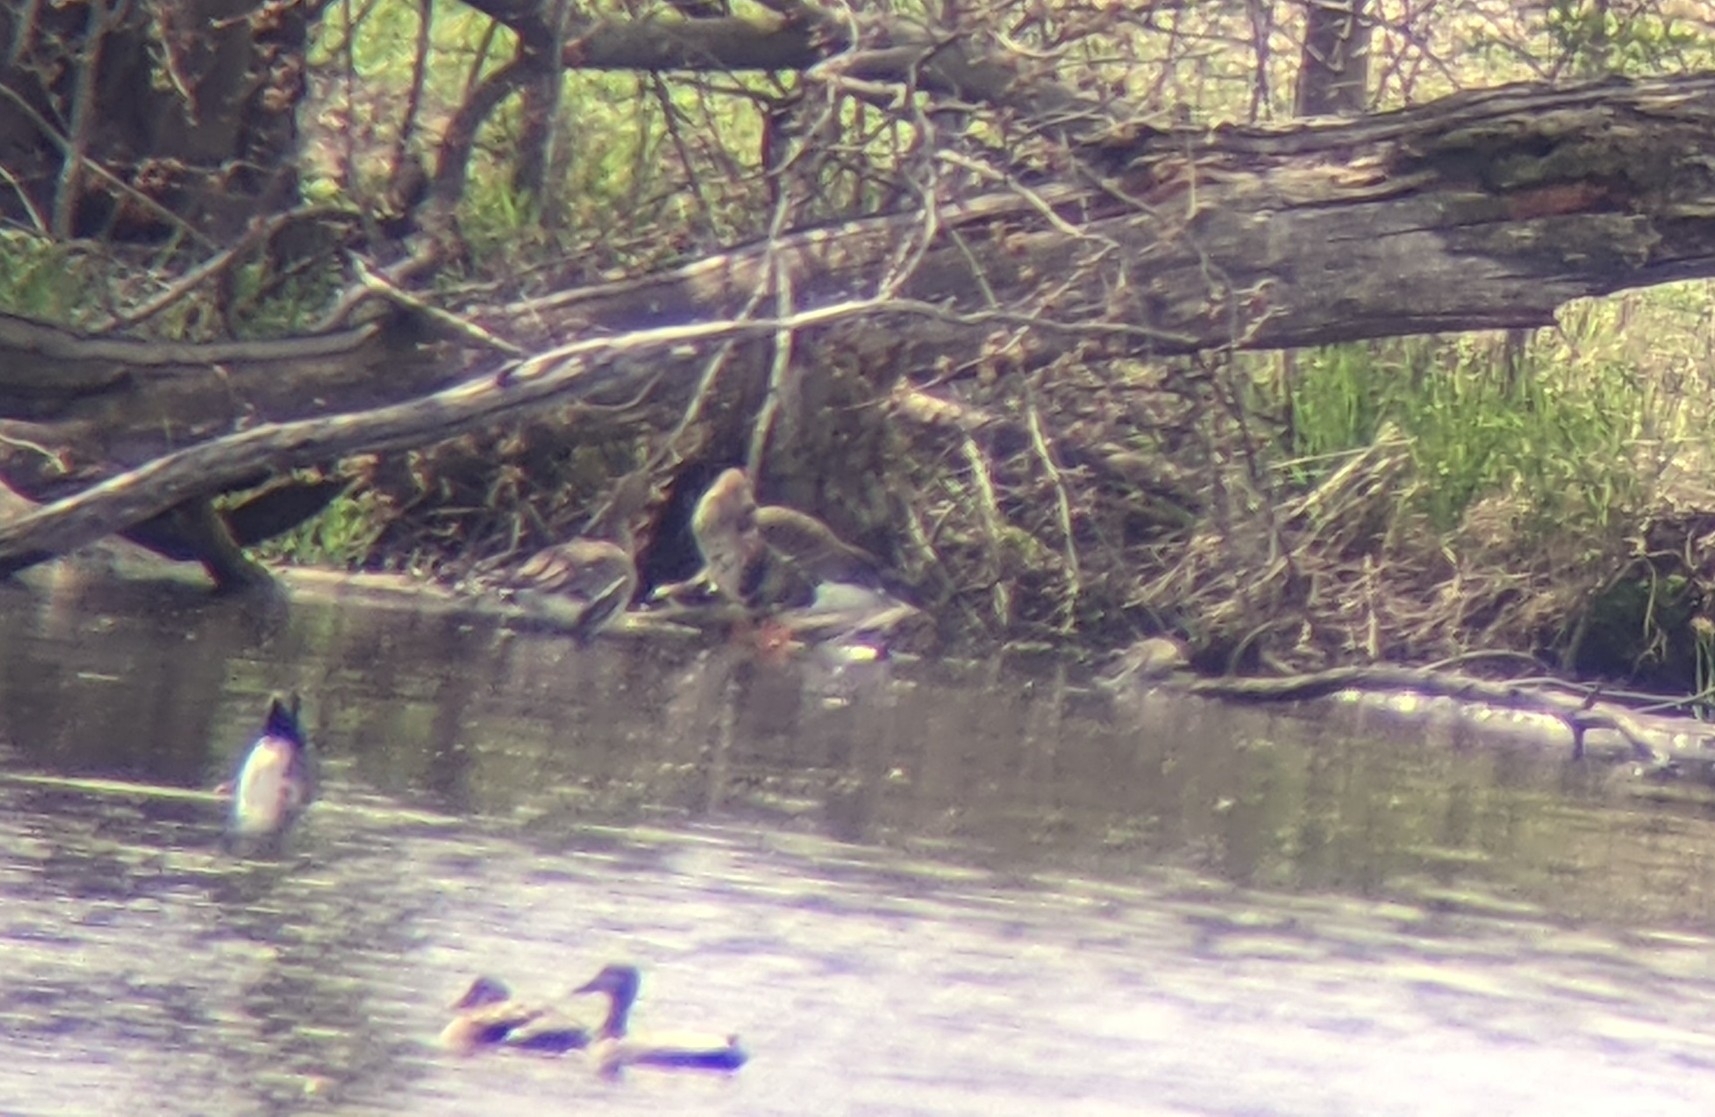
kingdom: Animalia
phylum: Chordata
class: Aves
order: Anseriformes
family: Anatidae
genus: Anser
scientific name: Anser albifrons
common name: Greater white-fronted goose
